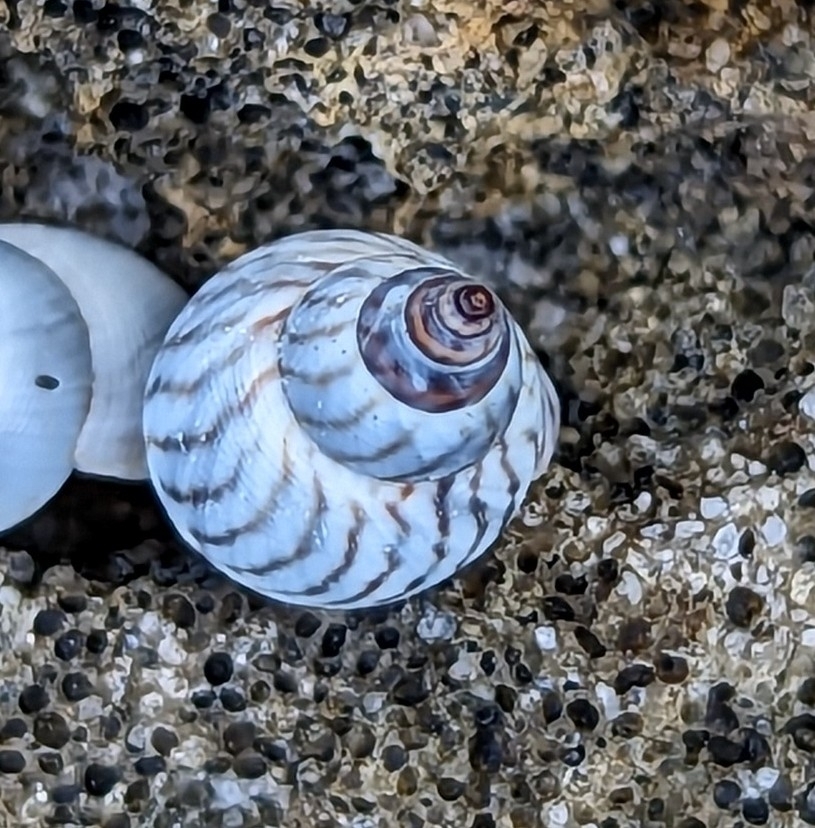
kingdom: Animalia
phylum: Mollusca
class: Gastropoda
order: Littorinimorpha
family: Littorinidae
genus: Echinolittorina
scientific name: Echinolittorina ziczac
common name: Zebra periwinkle
